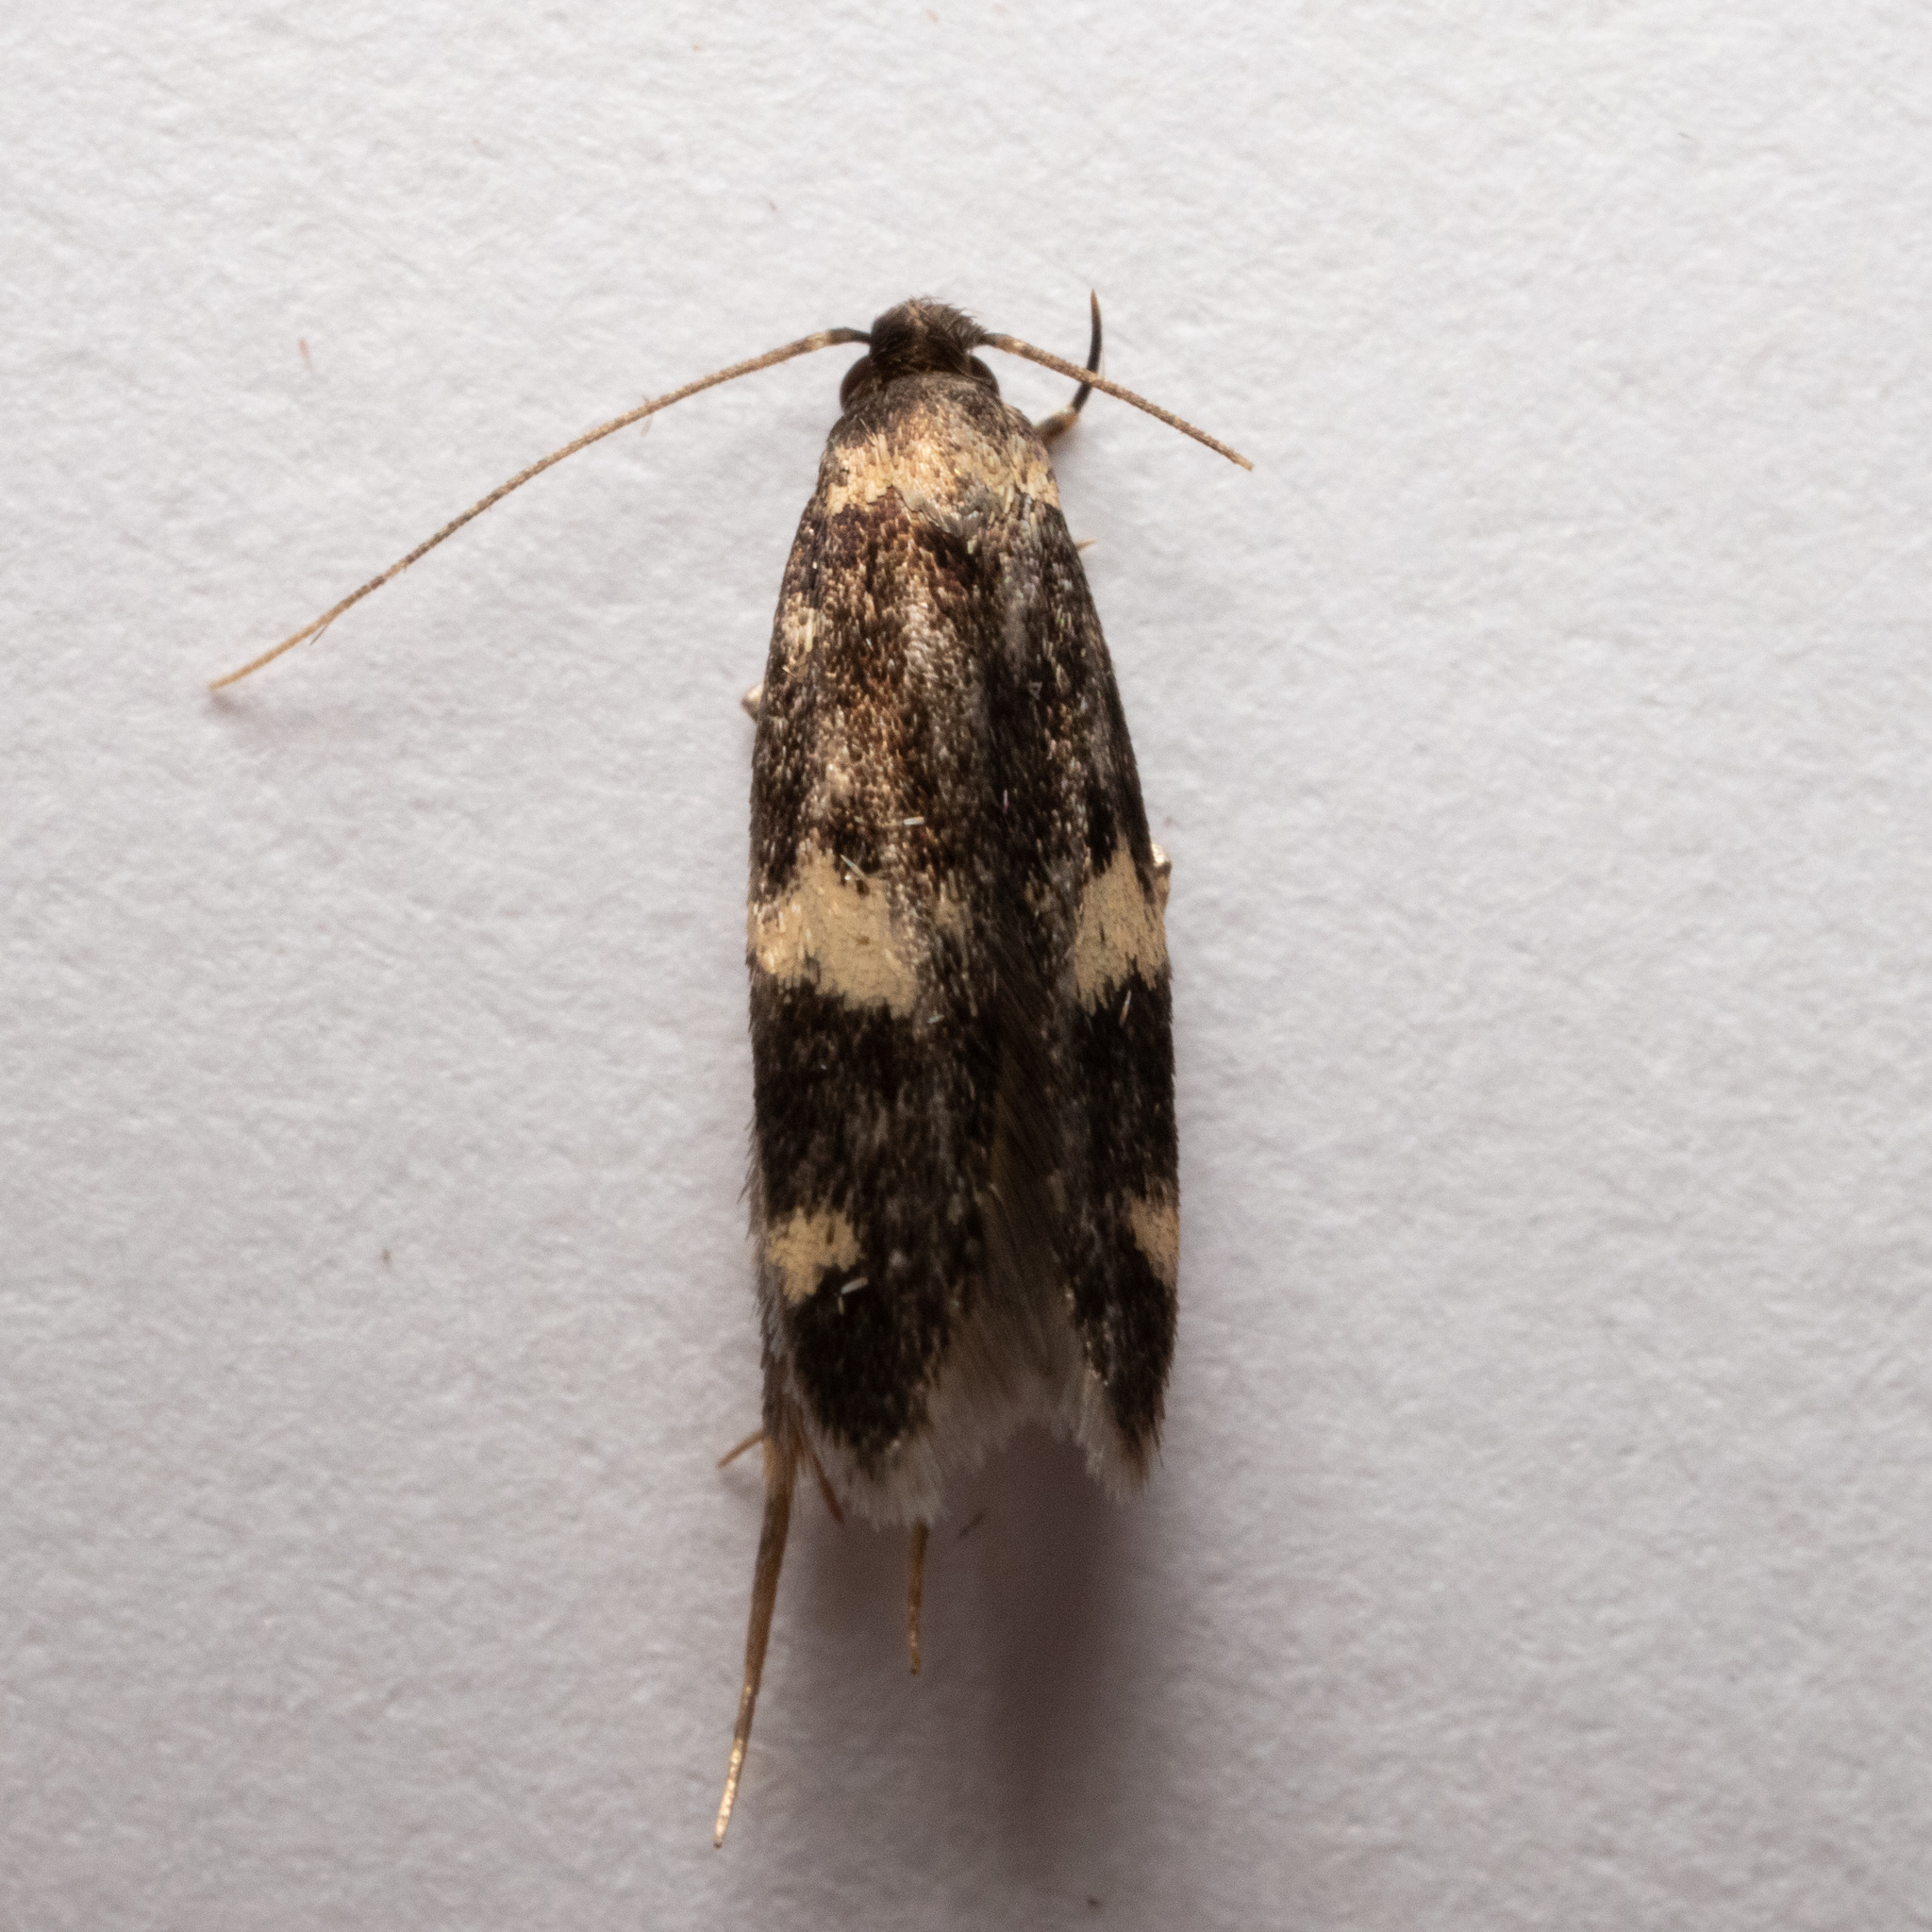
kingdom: Animalia
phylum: Arthropoda
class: Insecta
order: Lepidoptera
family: Autostichidae
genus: Oegoconia
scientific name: Oegoconia quadripuncta
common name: Four-spotted obscure
